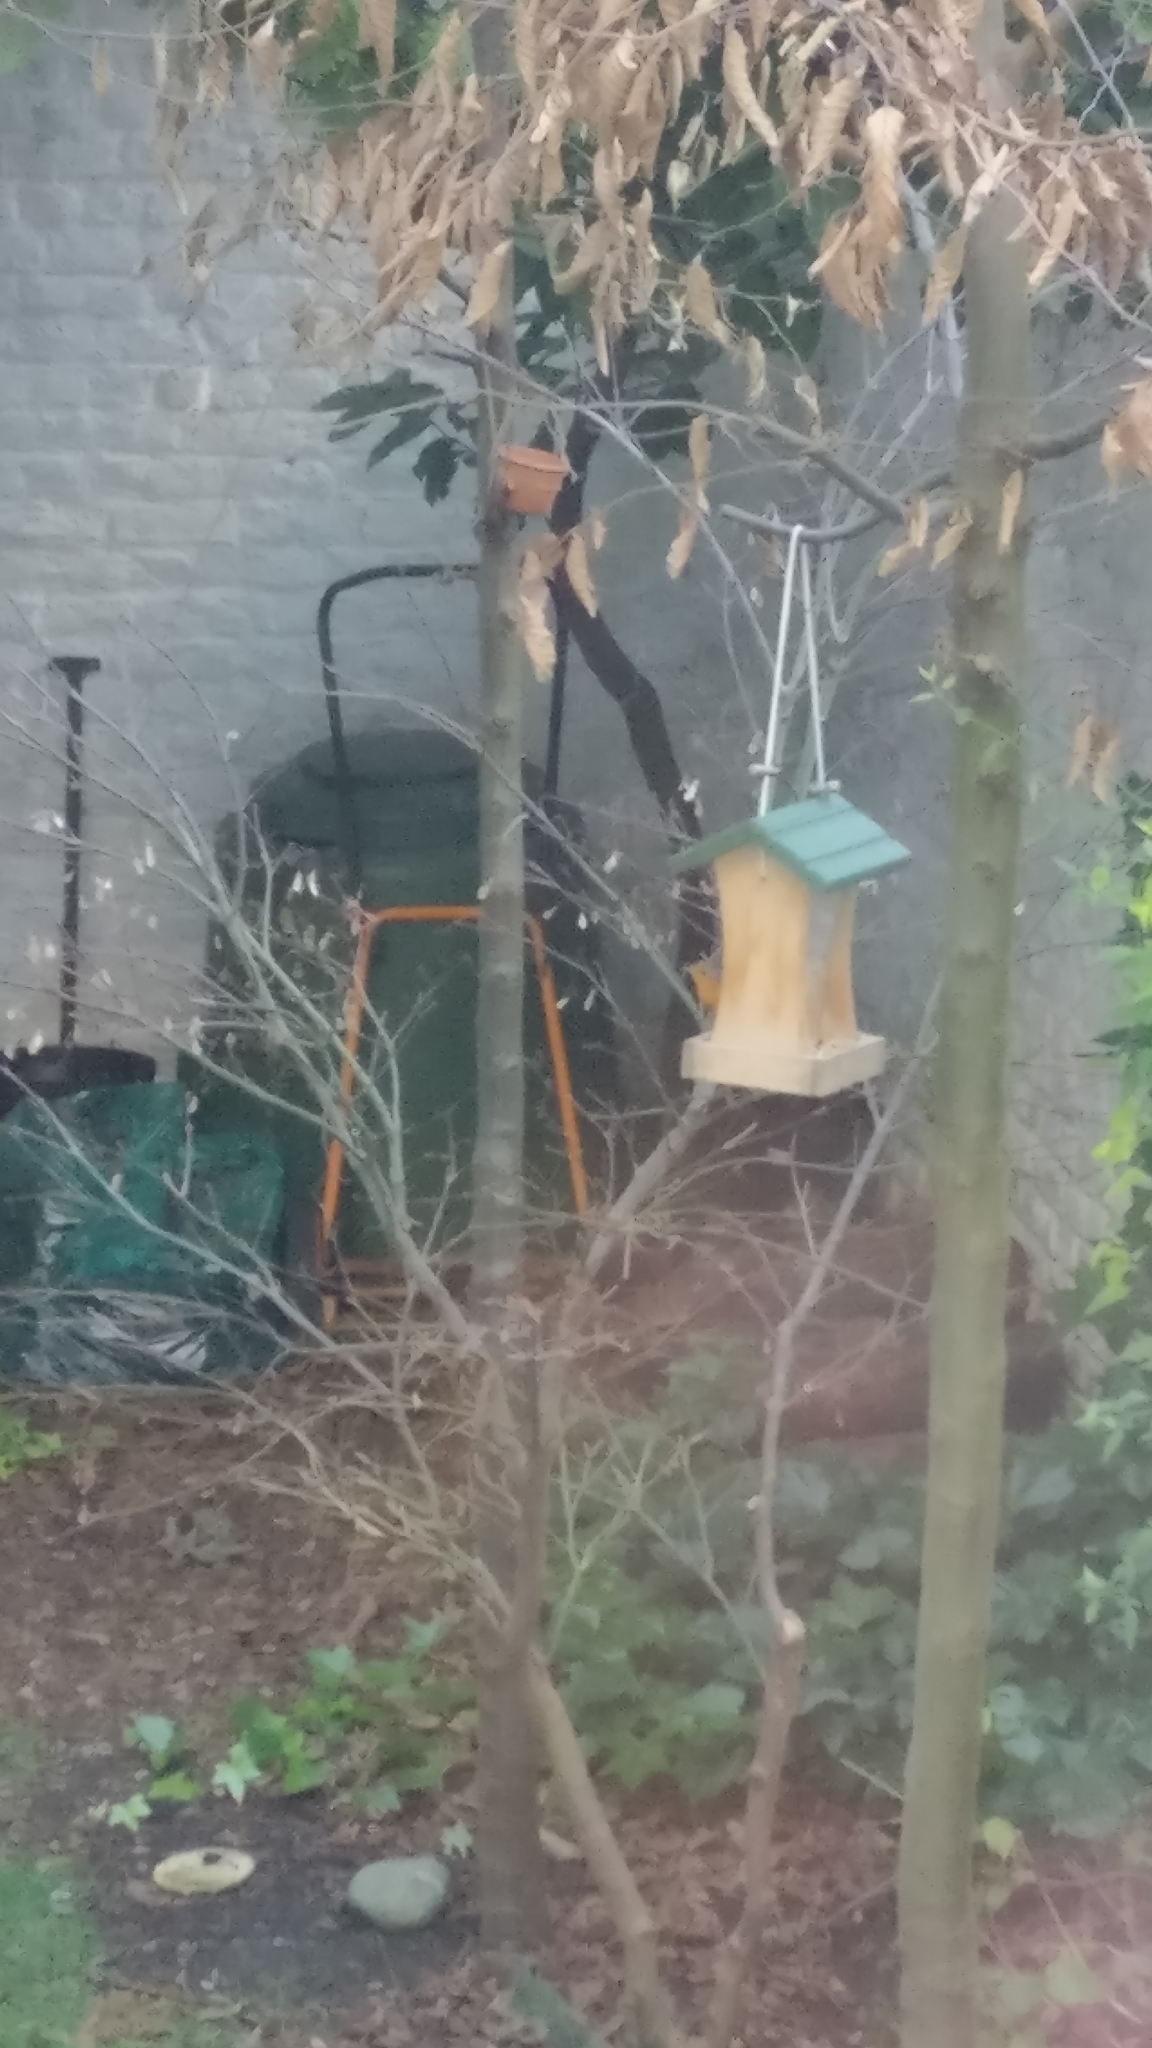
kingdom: Animalia
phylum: Chordata
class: Aves
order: Passeriformes
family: Muscicapidae
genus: Erithacus
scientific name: Erithacus rubecula
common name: European robin
